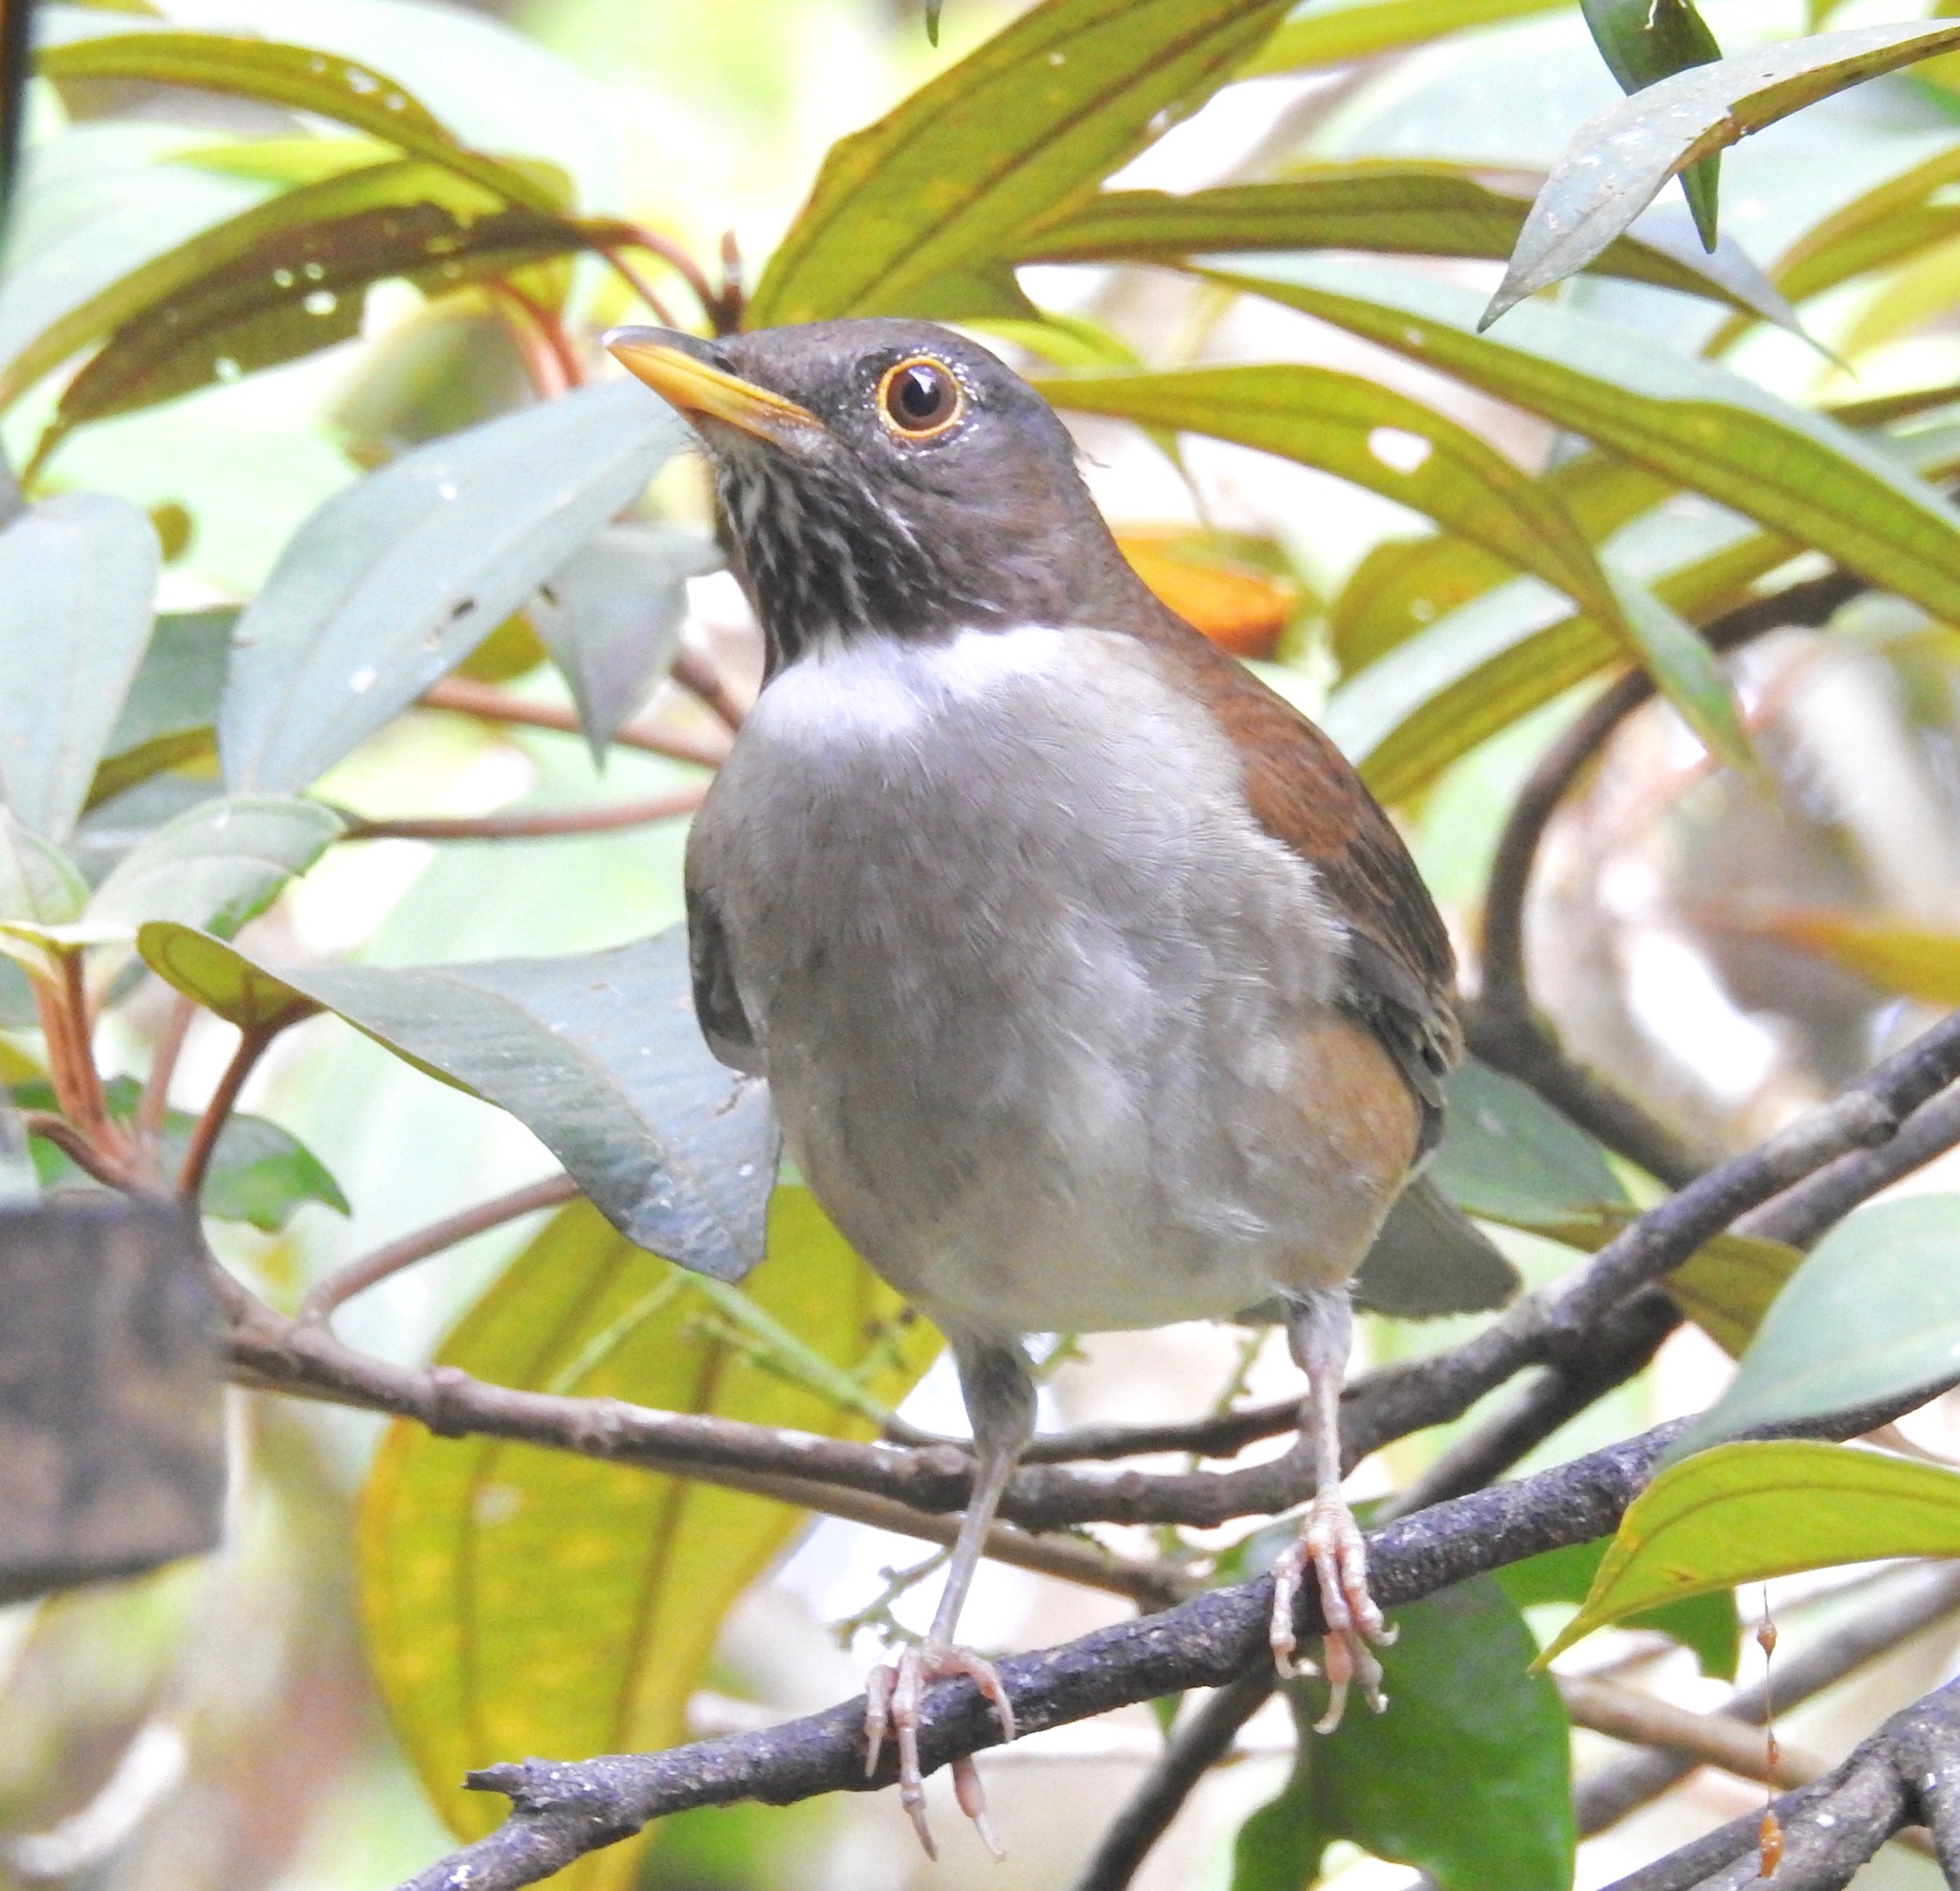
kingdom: Animalia
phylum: Chordata
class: Aves
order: Passeriformes
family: Turdidae
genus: Turdus
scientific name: Turdus albicollis
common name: White-necked thrush
